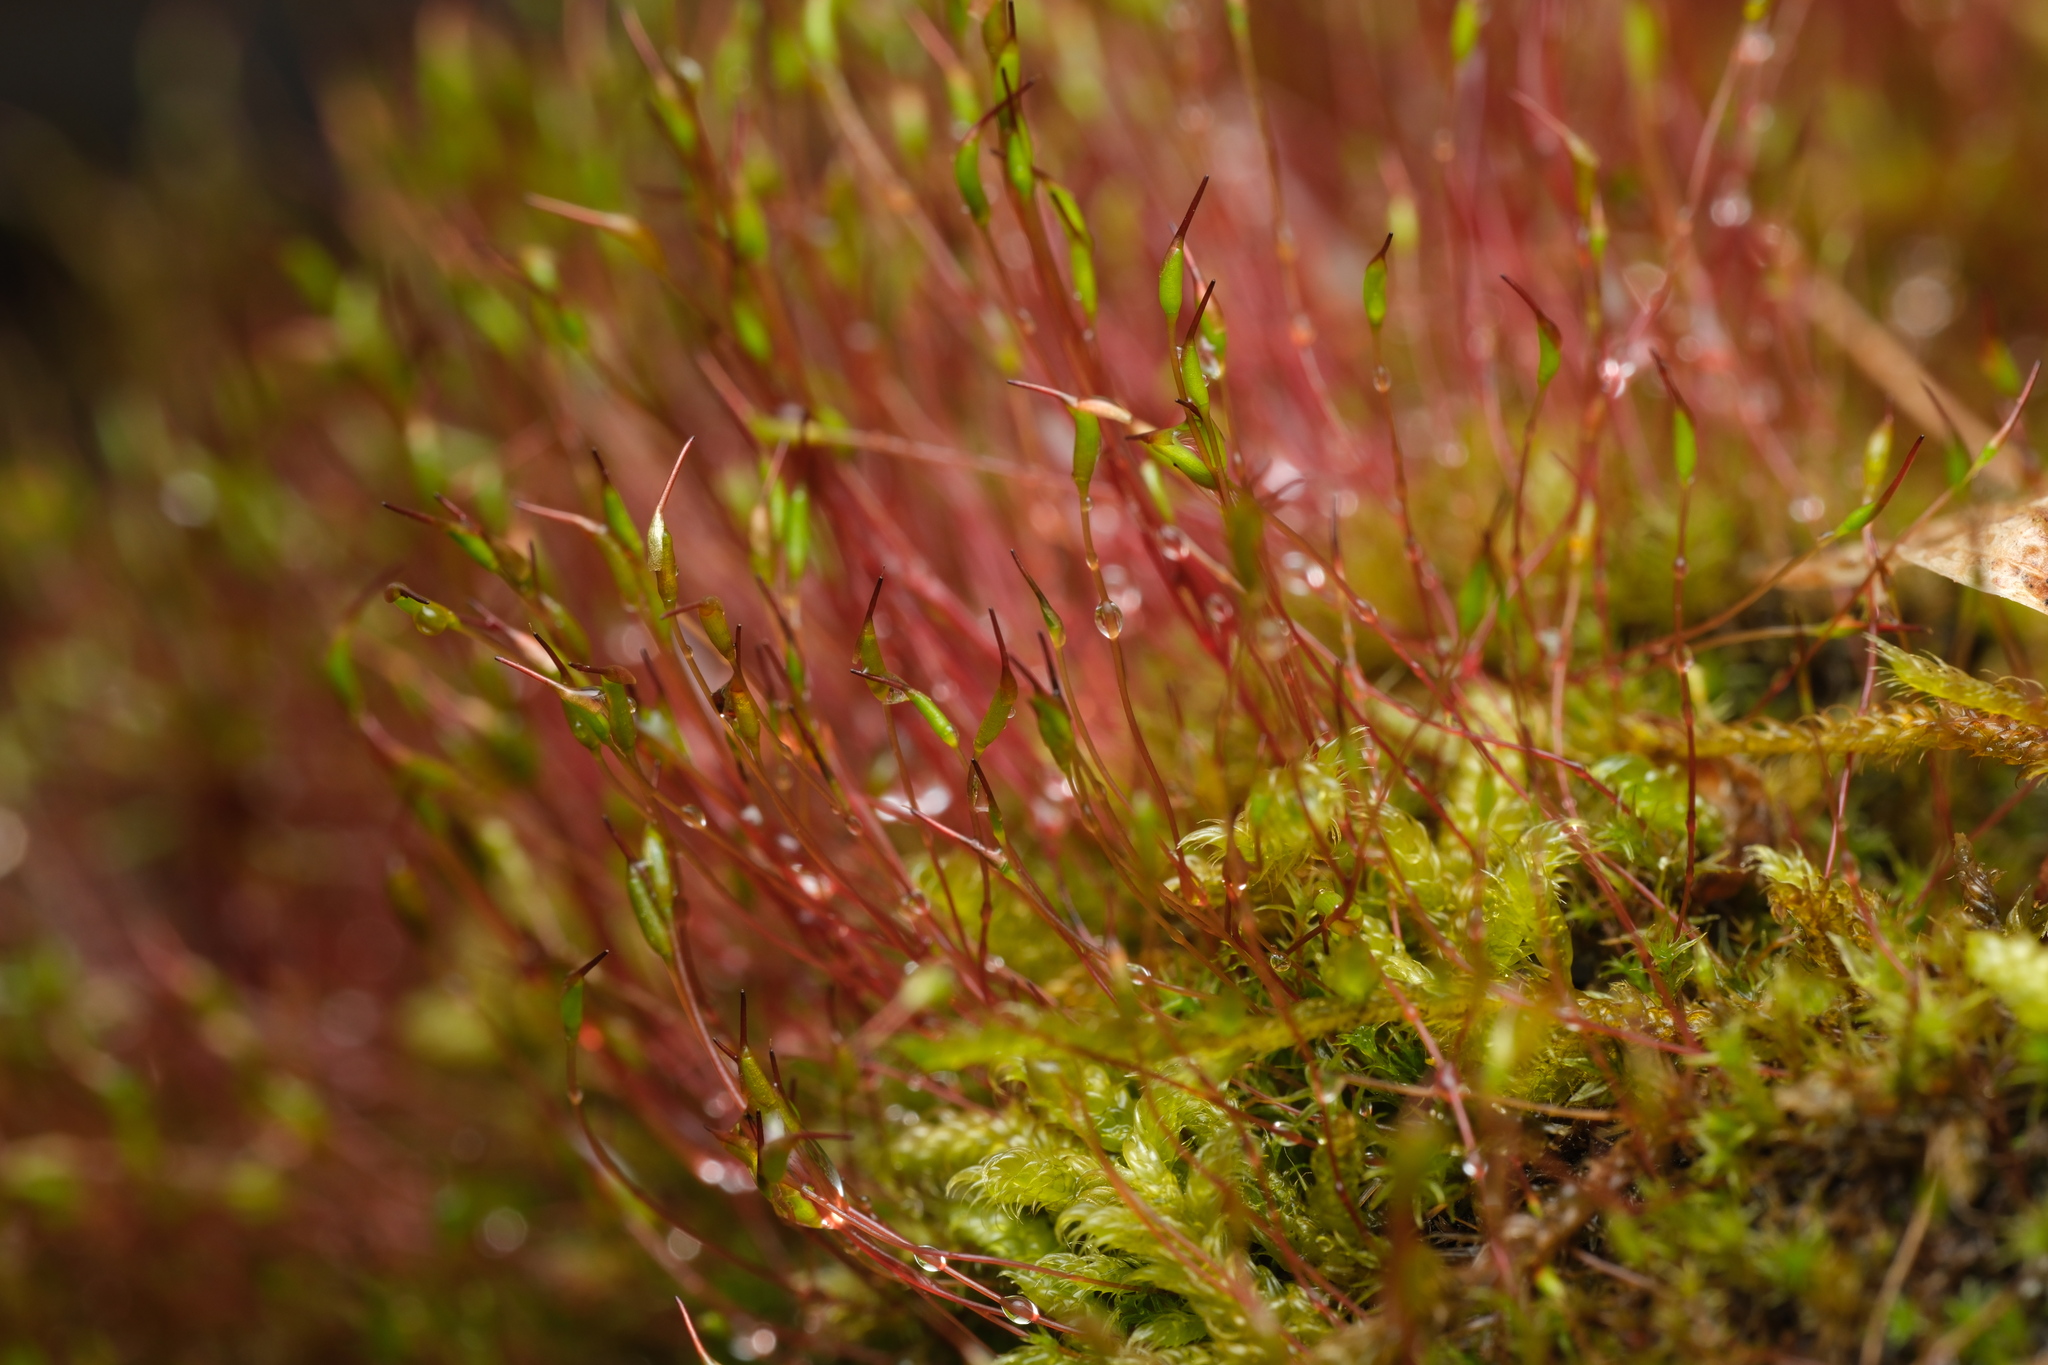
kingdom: Plantae
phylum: Bryophyta
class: Bryopsida
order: Dicranales
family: Ditrichaceae
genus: Ceratodon
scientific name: Ceratodon purpureus
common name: Redshank
